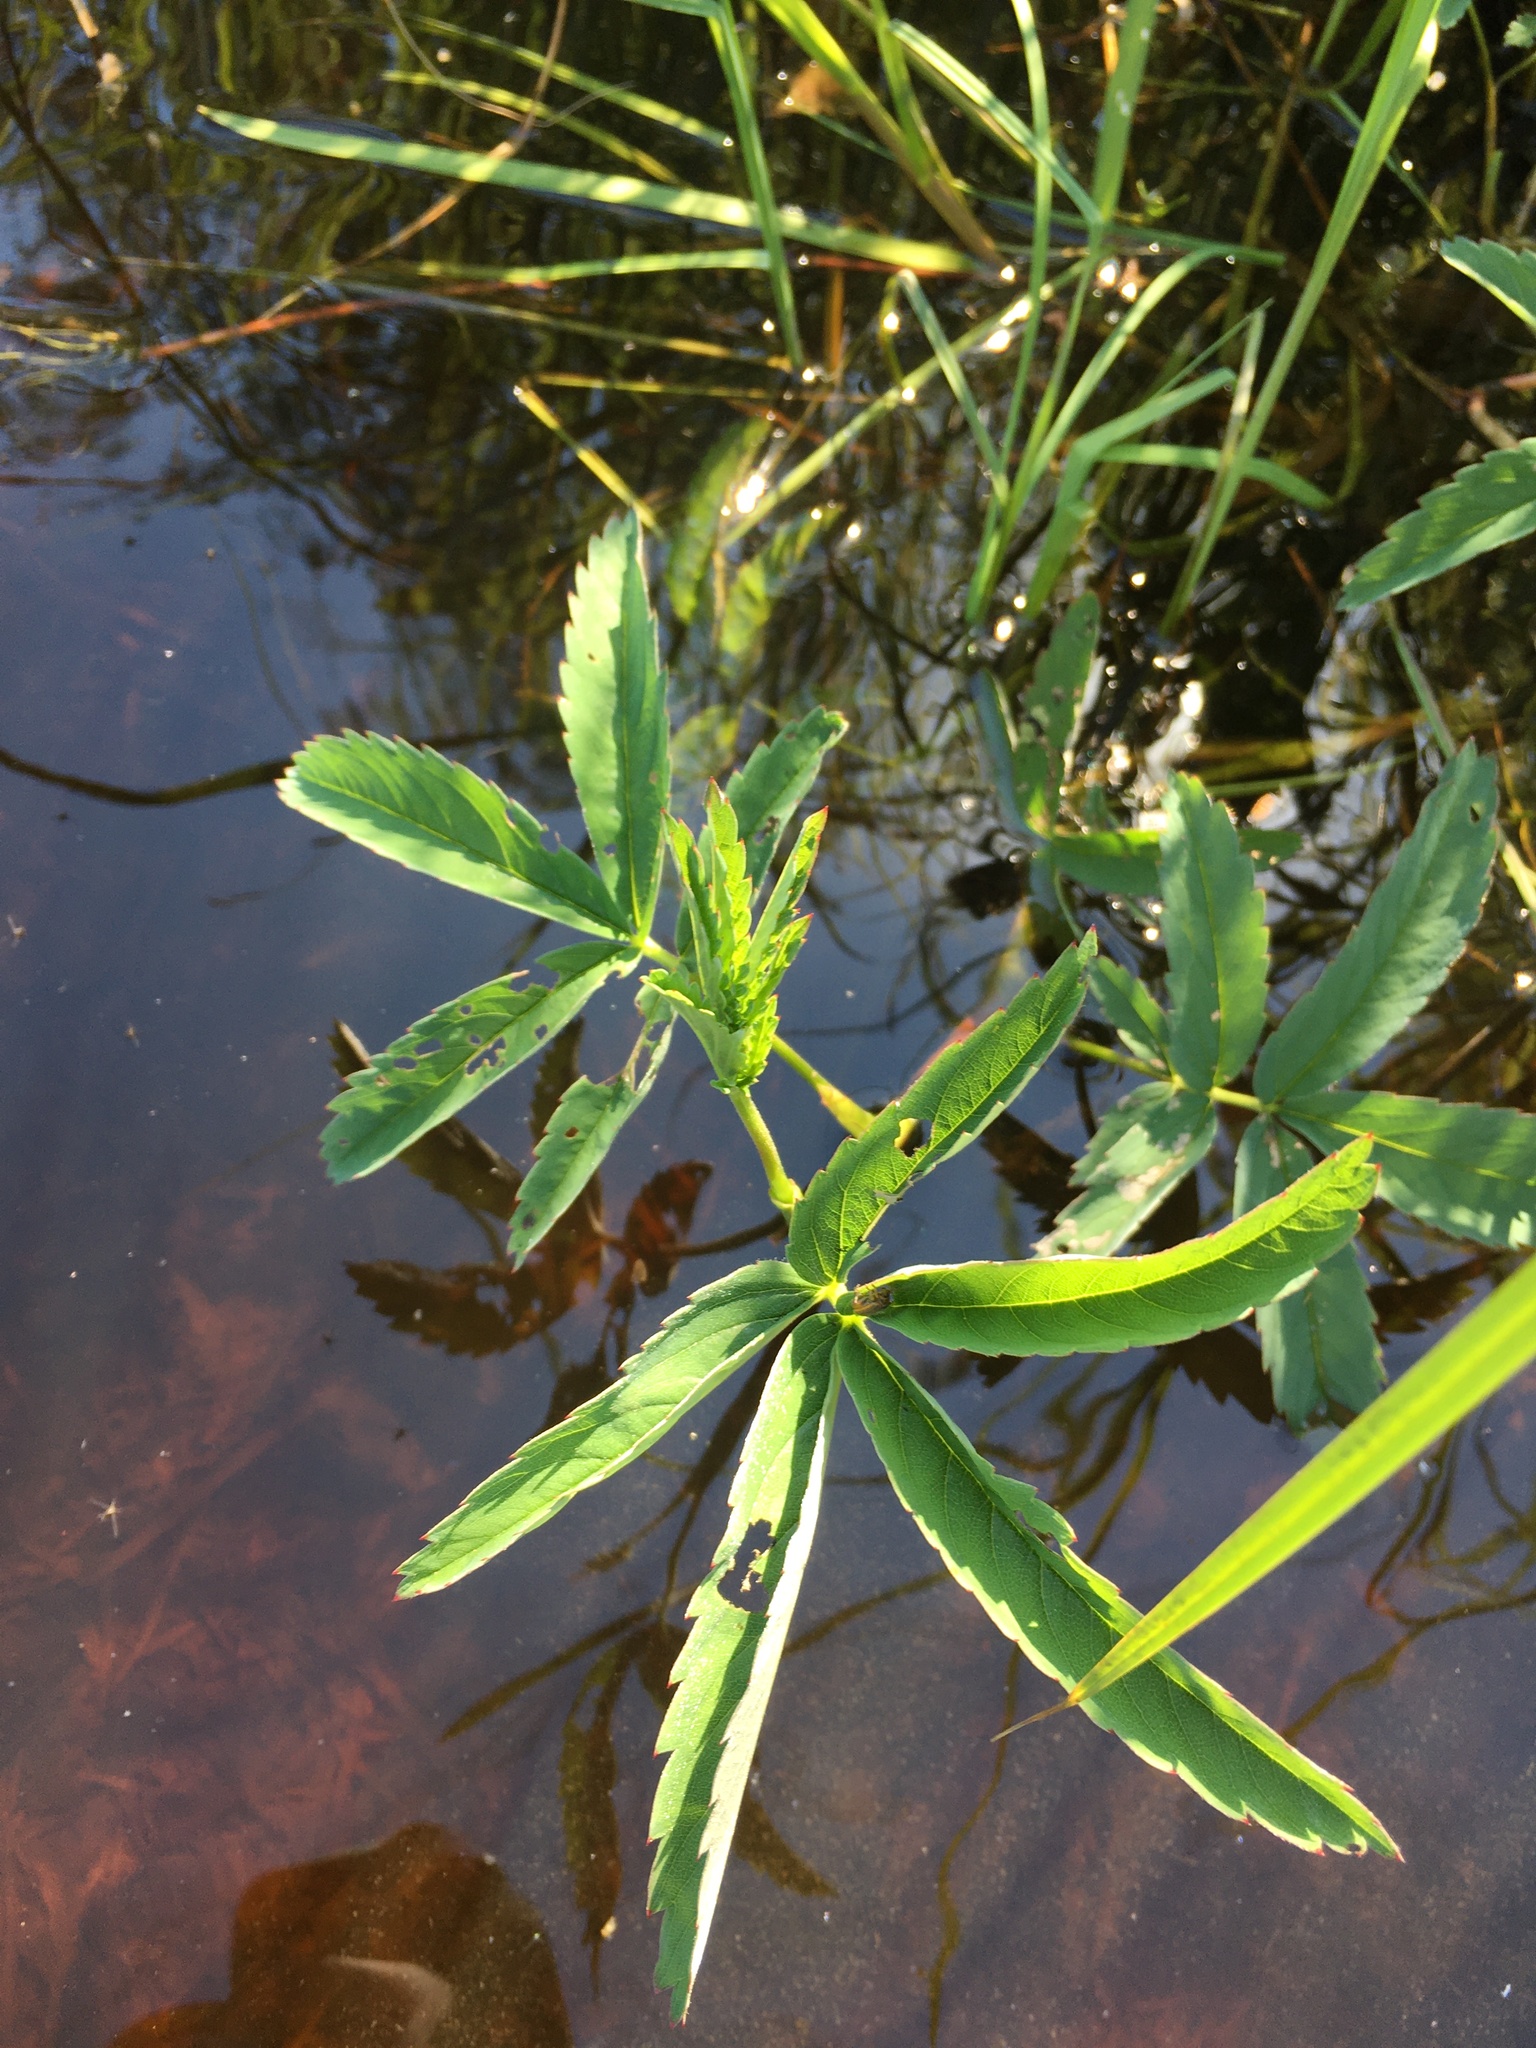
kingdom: Plantae
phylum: Tracheophyta
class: Magnoliopsida
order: Rosales
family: Rosaceae
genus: Comarum
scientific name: Comarum palustre
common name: Marsh cinquefoil
